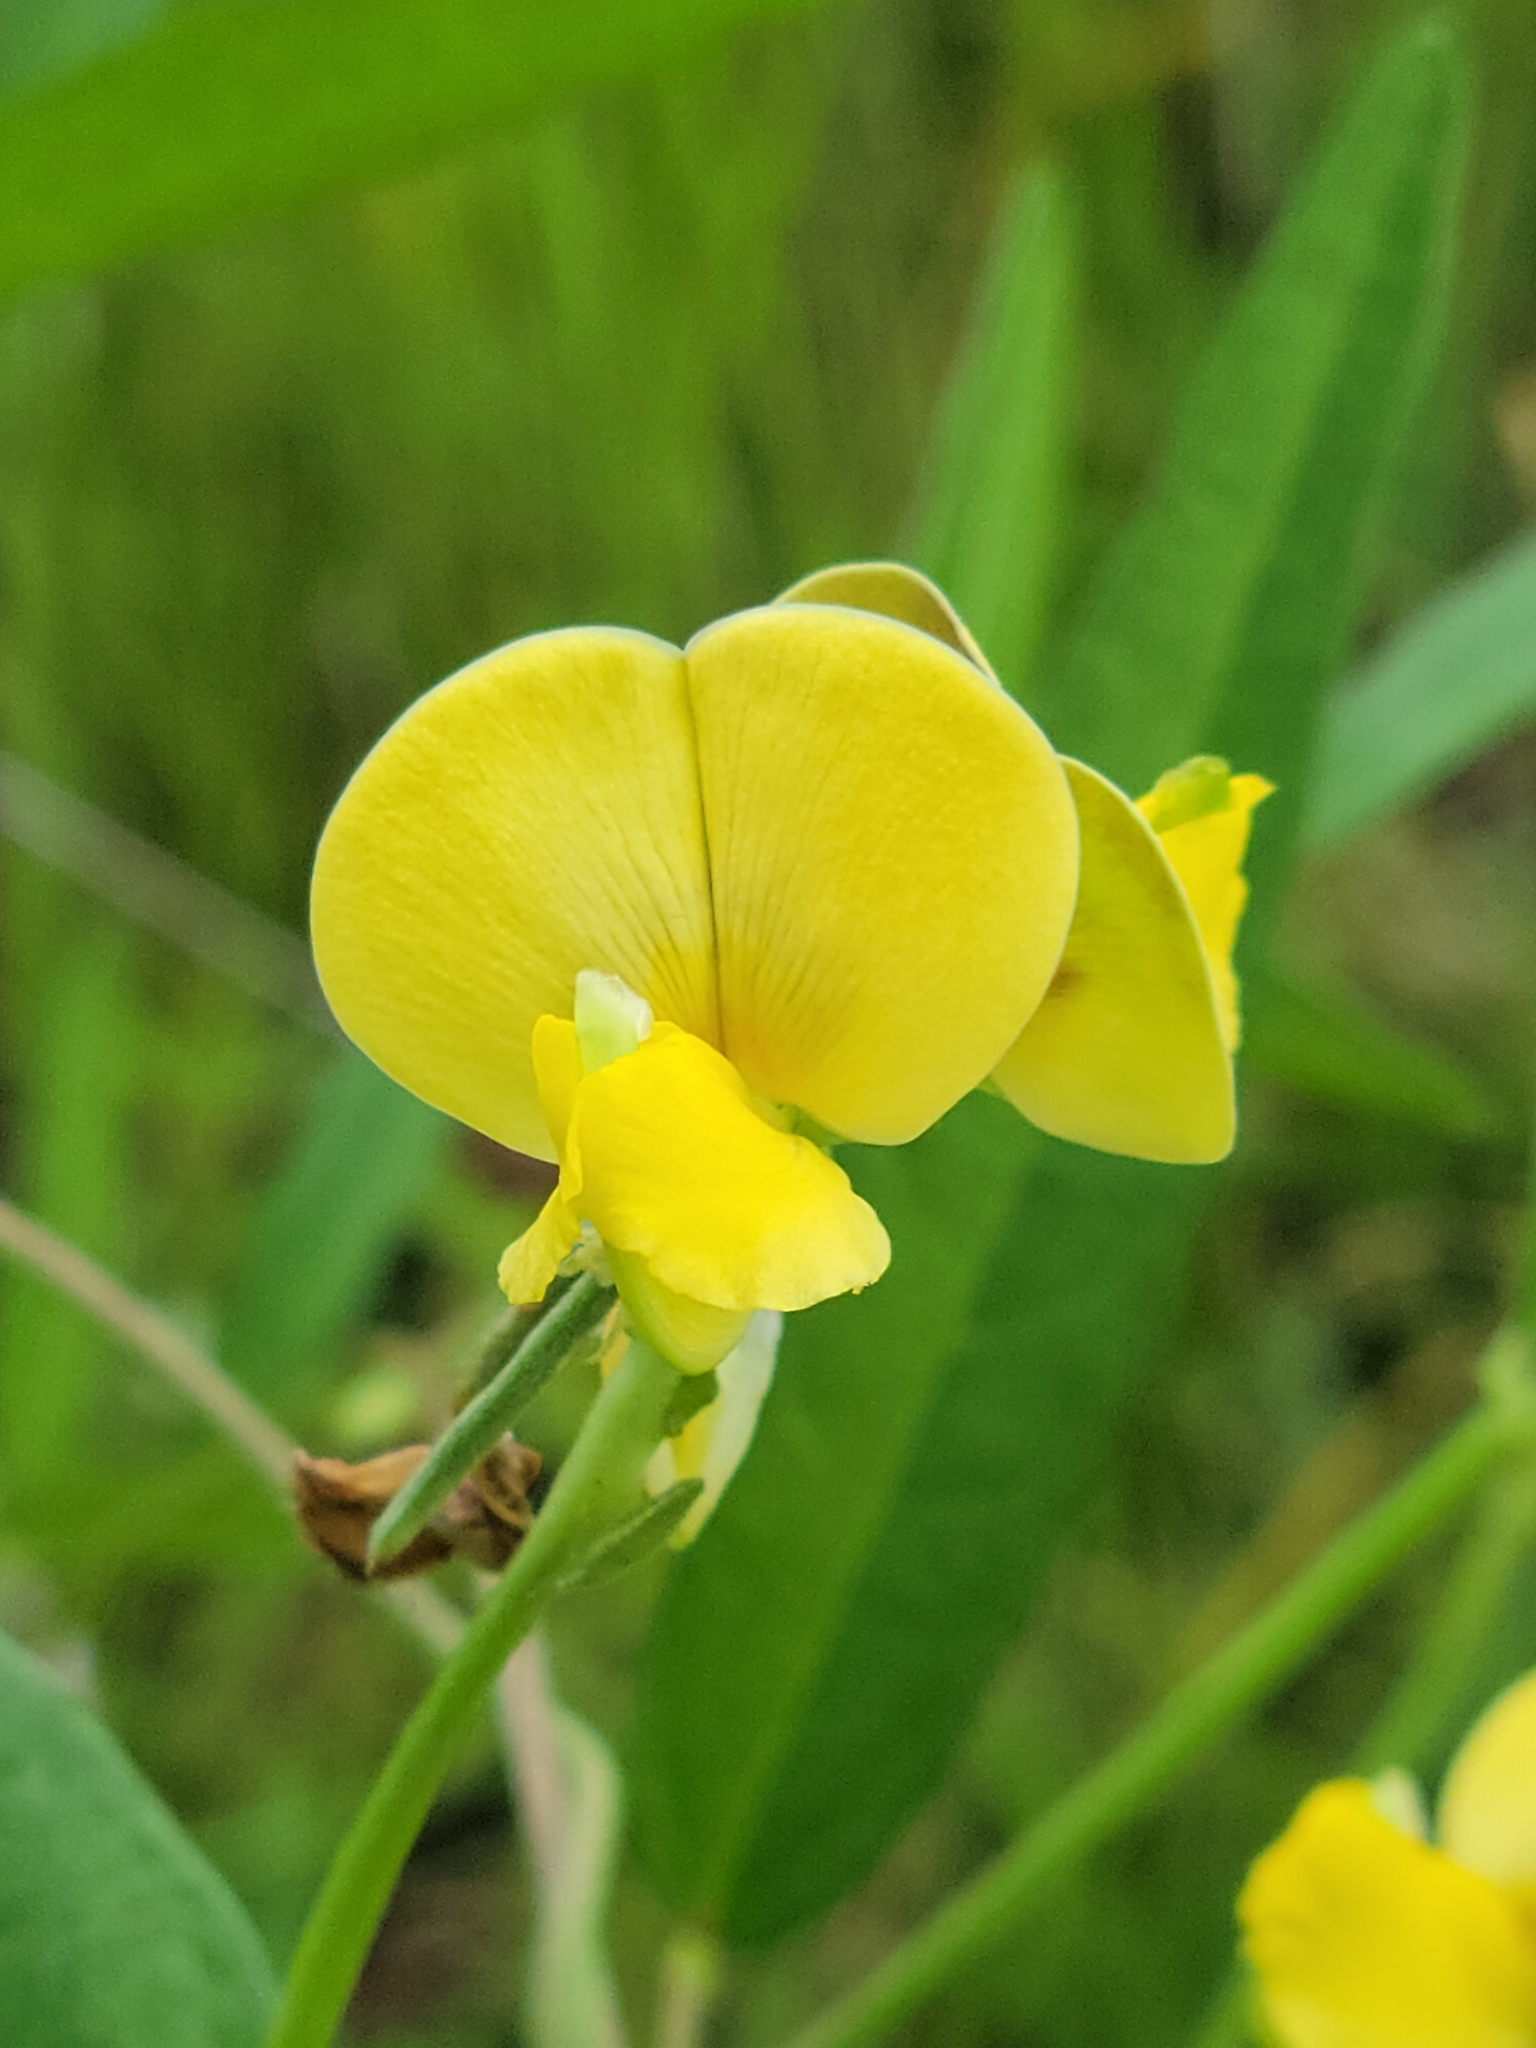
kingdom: Plantae
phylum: Tracheophyta
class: Magnoliopsida
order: Fabales
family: Fabaceae
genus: Vigna
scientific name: Vigna luteola
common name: Hairypod cowpea
